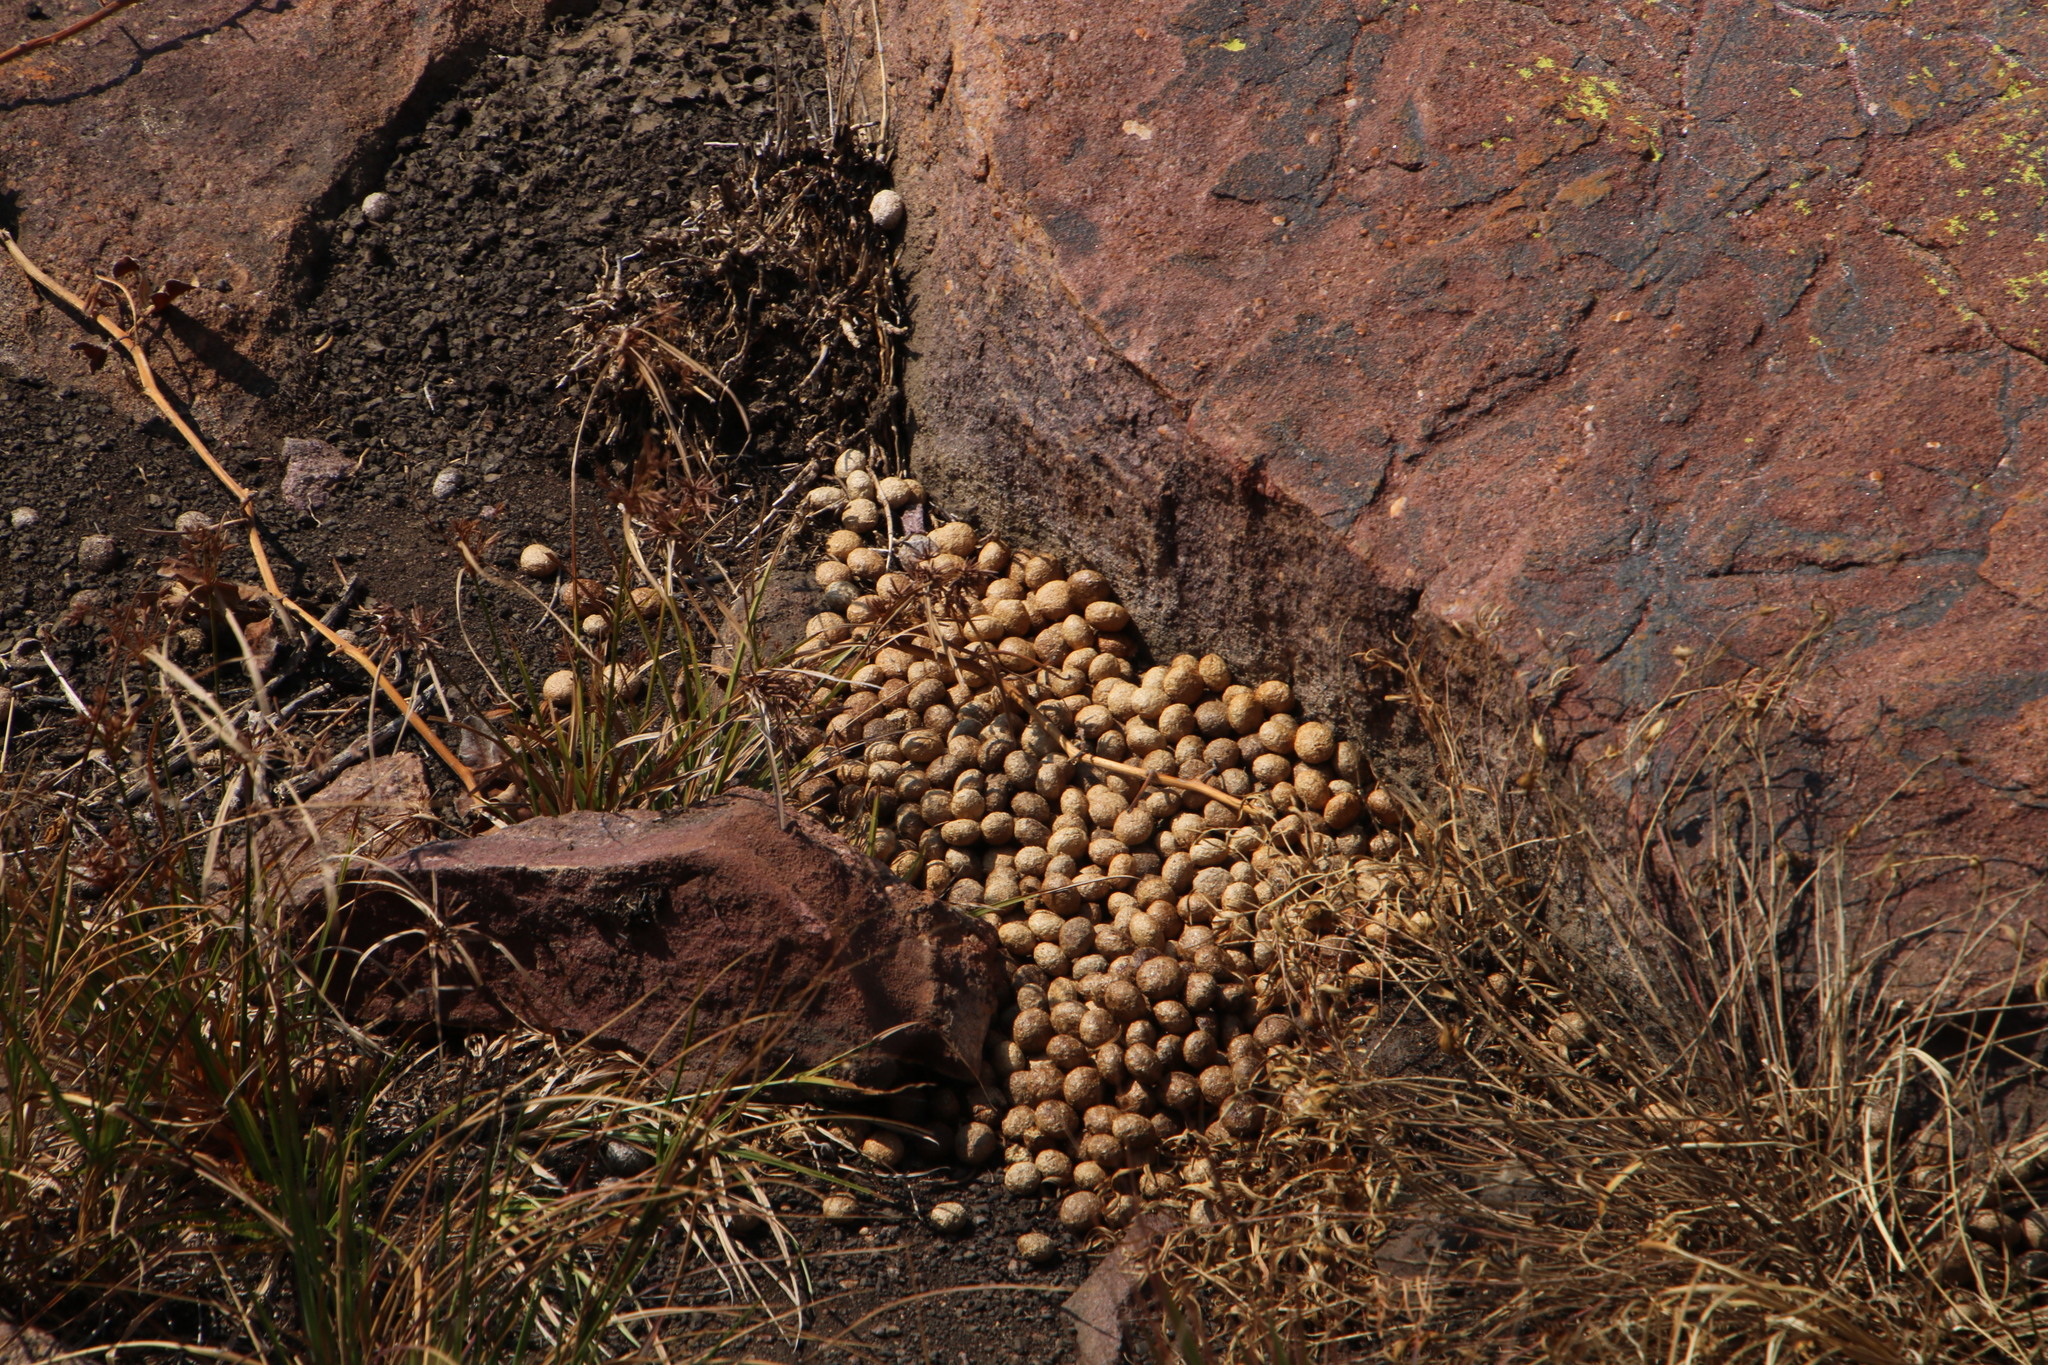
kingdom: Animalia
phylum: Chordata
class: Mammalia
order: Lagomorpha
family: Leporidae
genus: Pronolagus
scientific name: Pronolagus randensis
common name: Jameson's red rock hare
